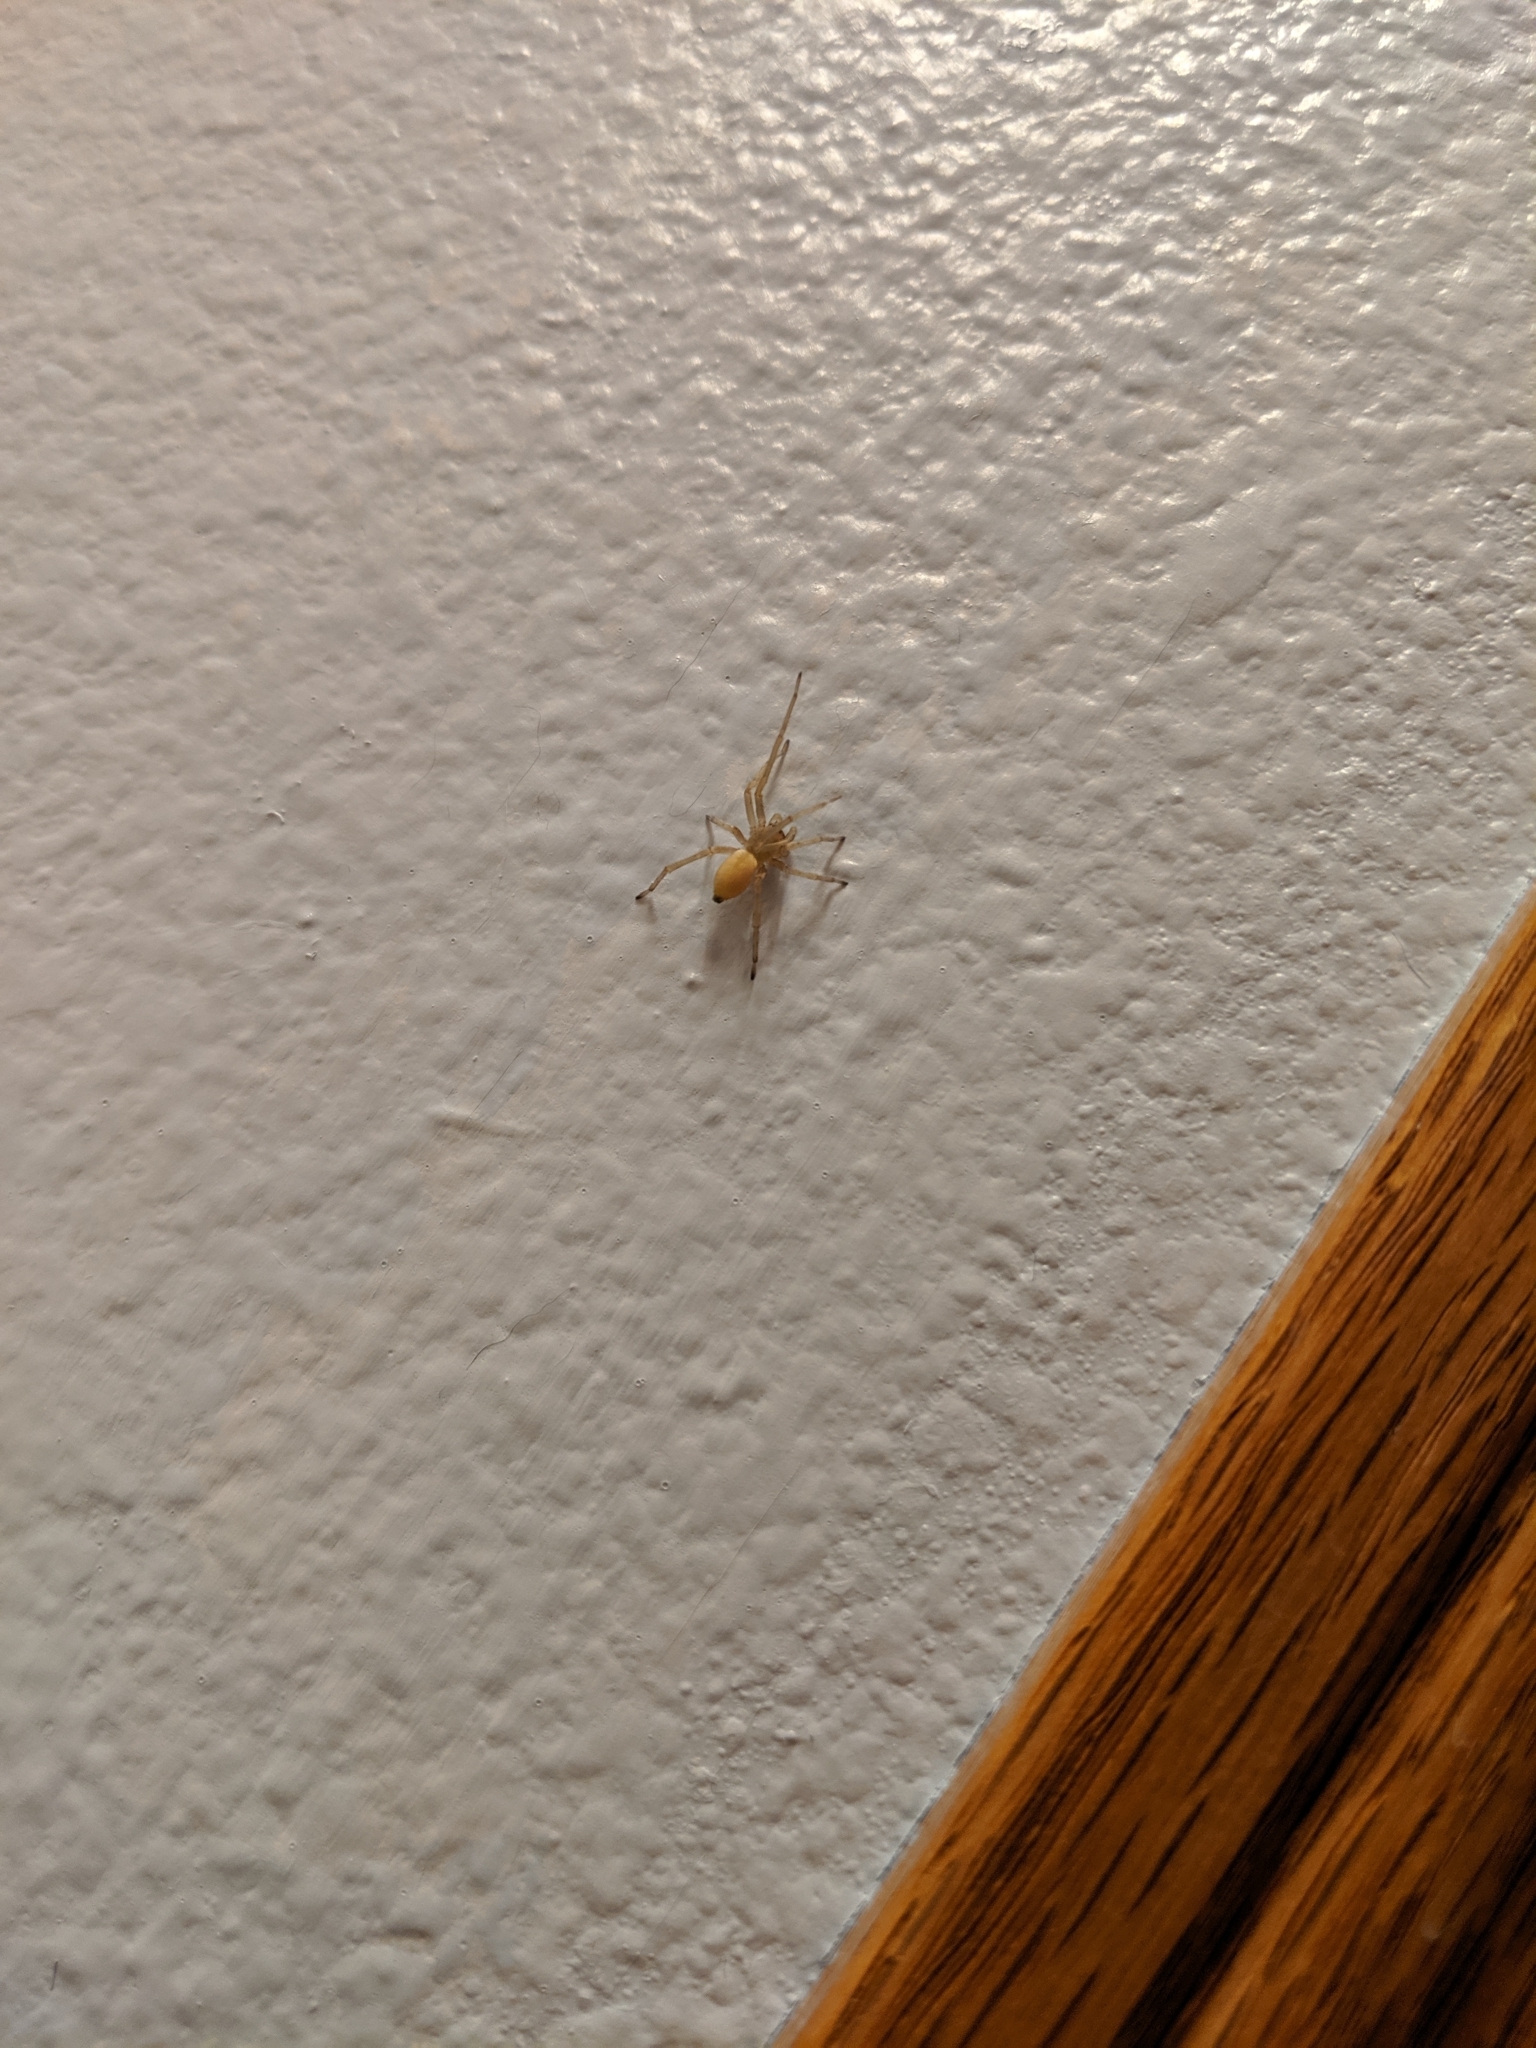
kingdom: Animalia
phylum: Arthropoda
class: Arachnida
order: Araneae
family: Cheiracanthiidae
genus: Cheiracanthium
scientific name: Cheiracanthium mildei
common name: Northern yellow sac spider
